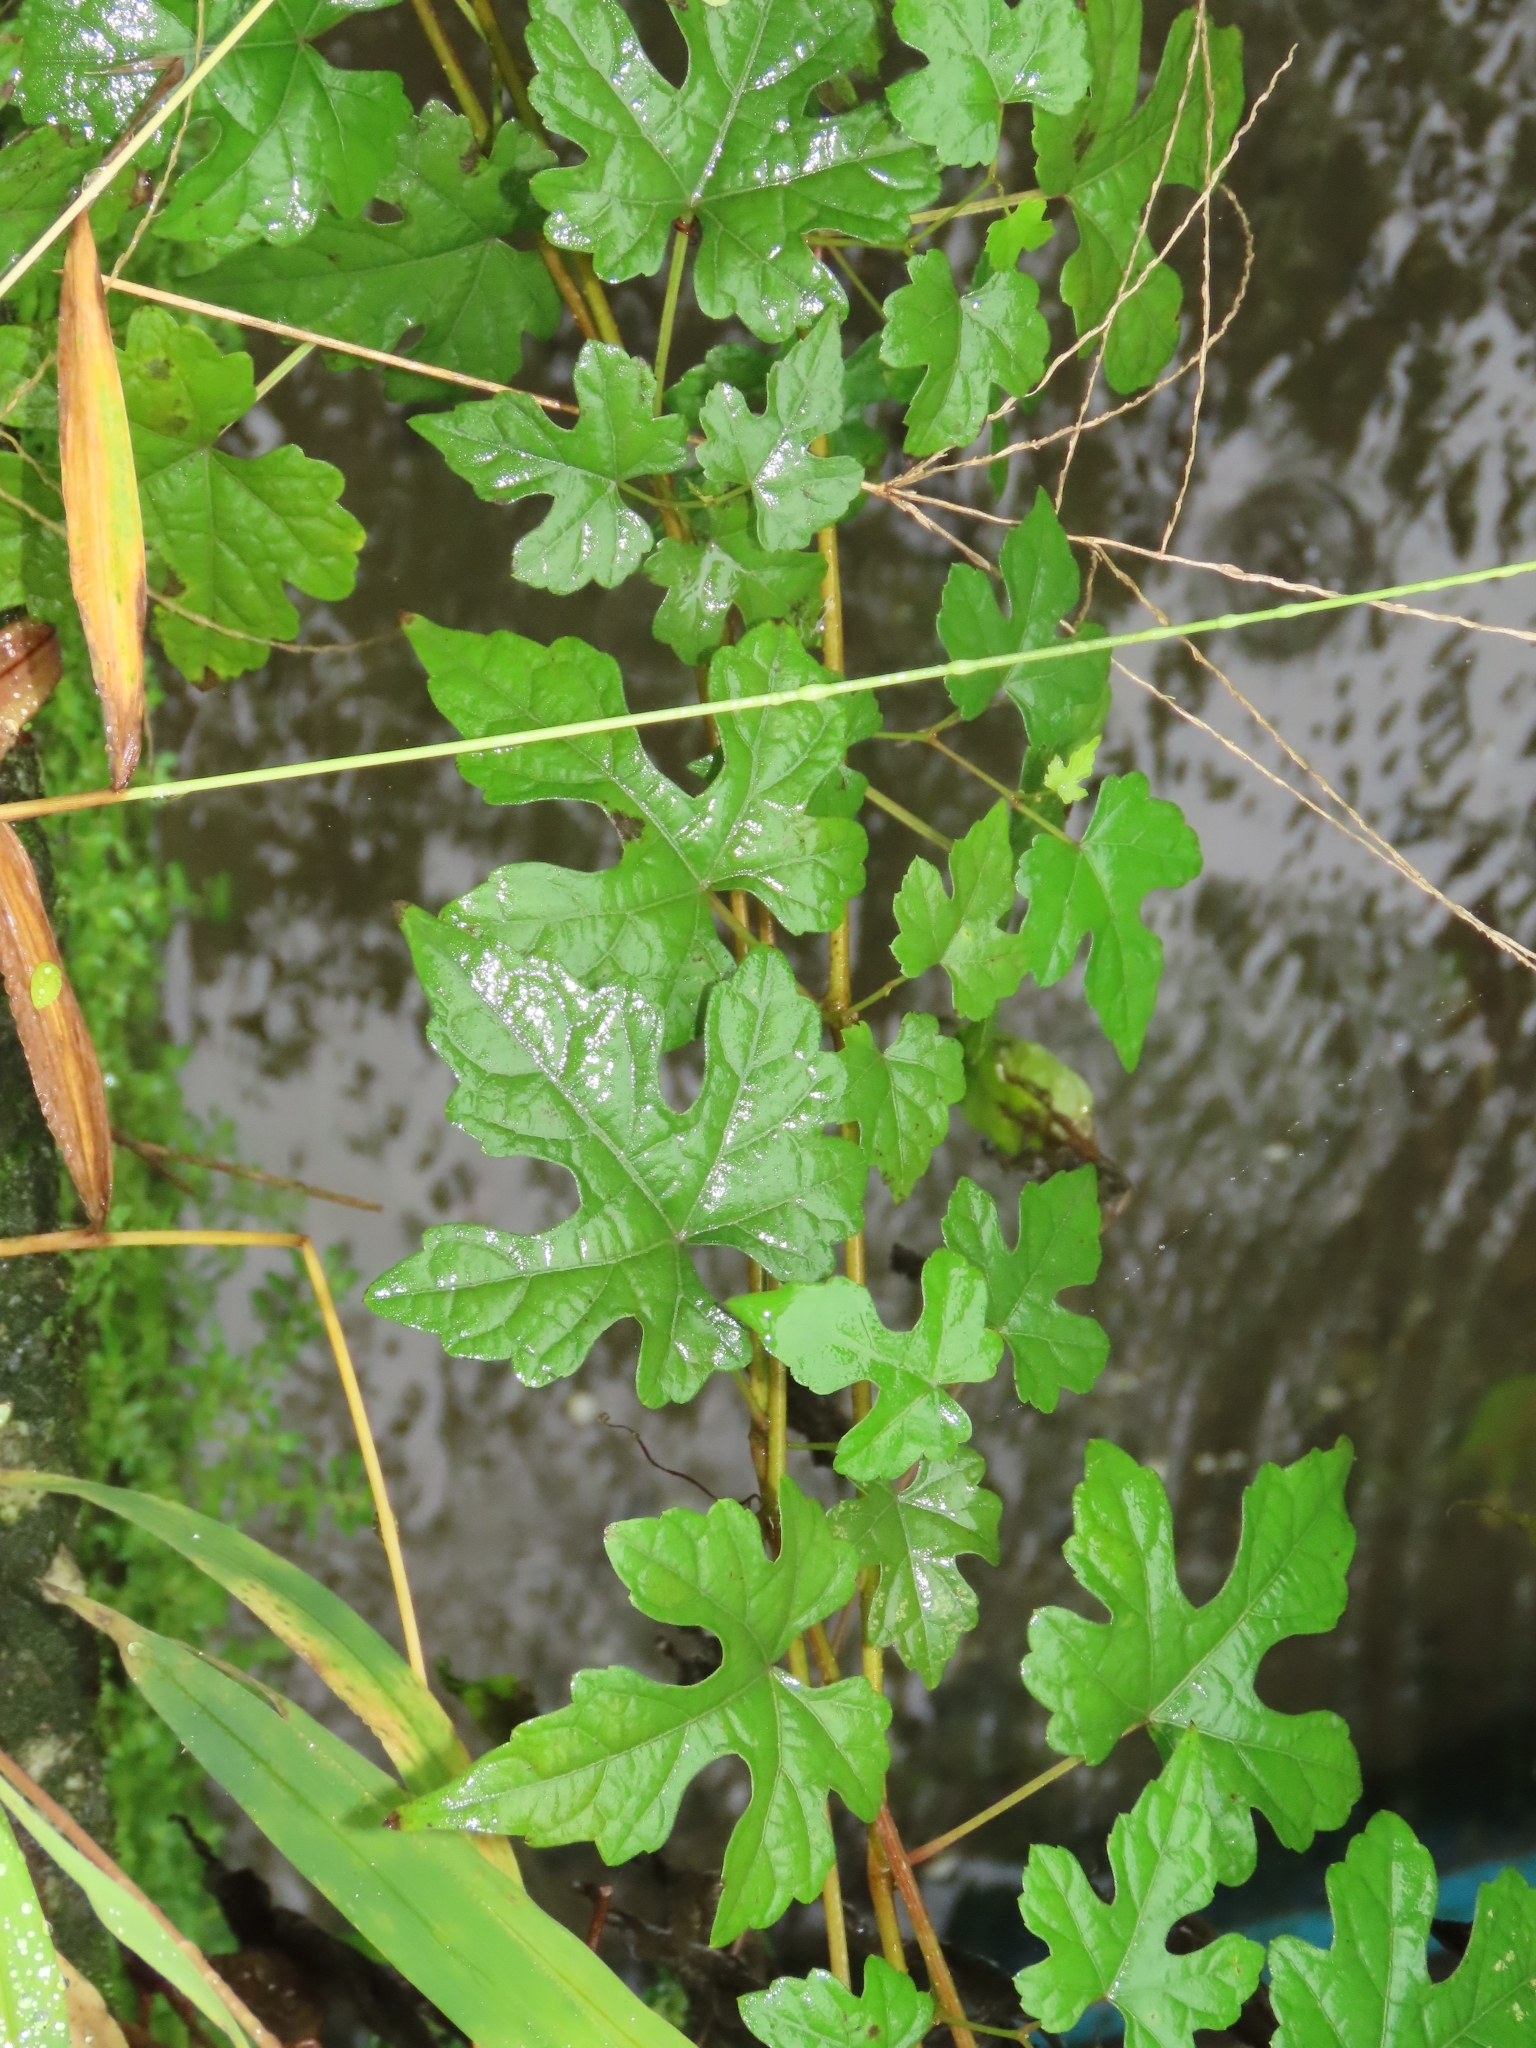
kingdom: Plantae
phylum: Tracheophyta
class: Magnoliopsida
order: Vitales
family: Vitaceae
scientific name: Vitaceae
